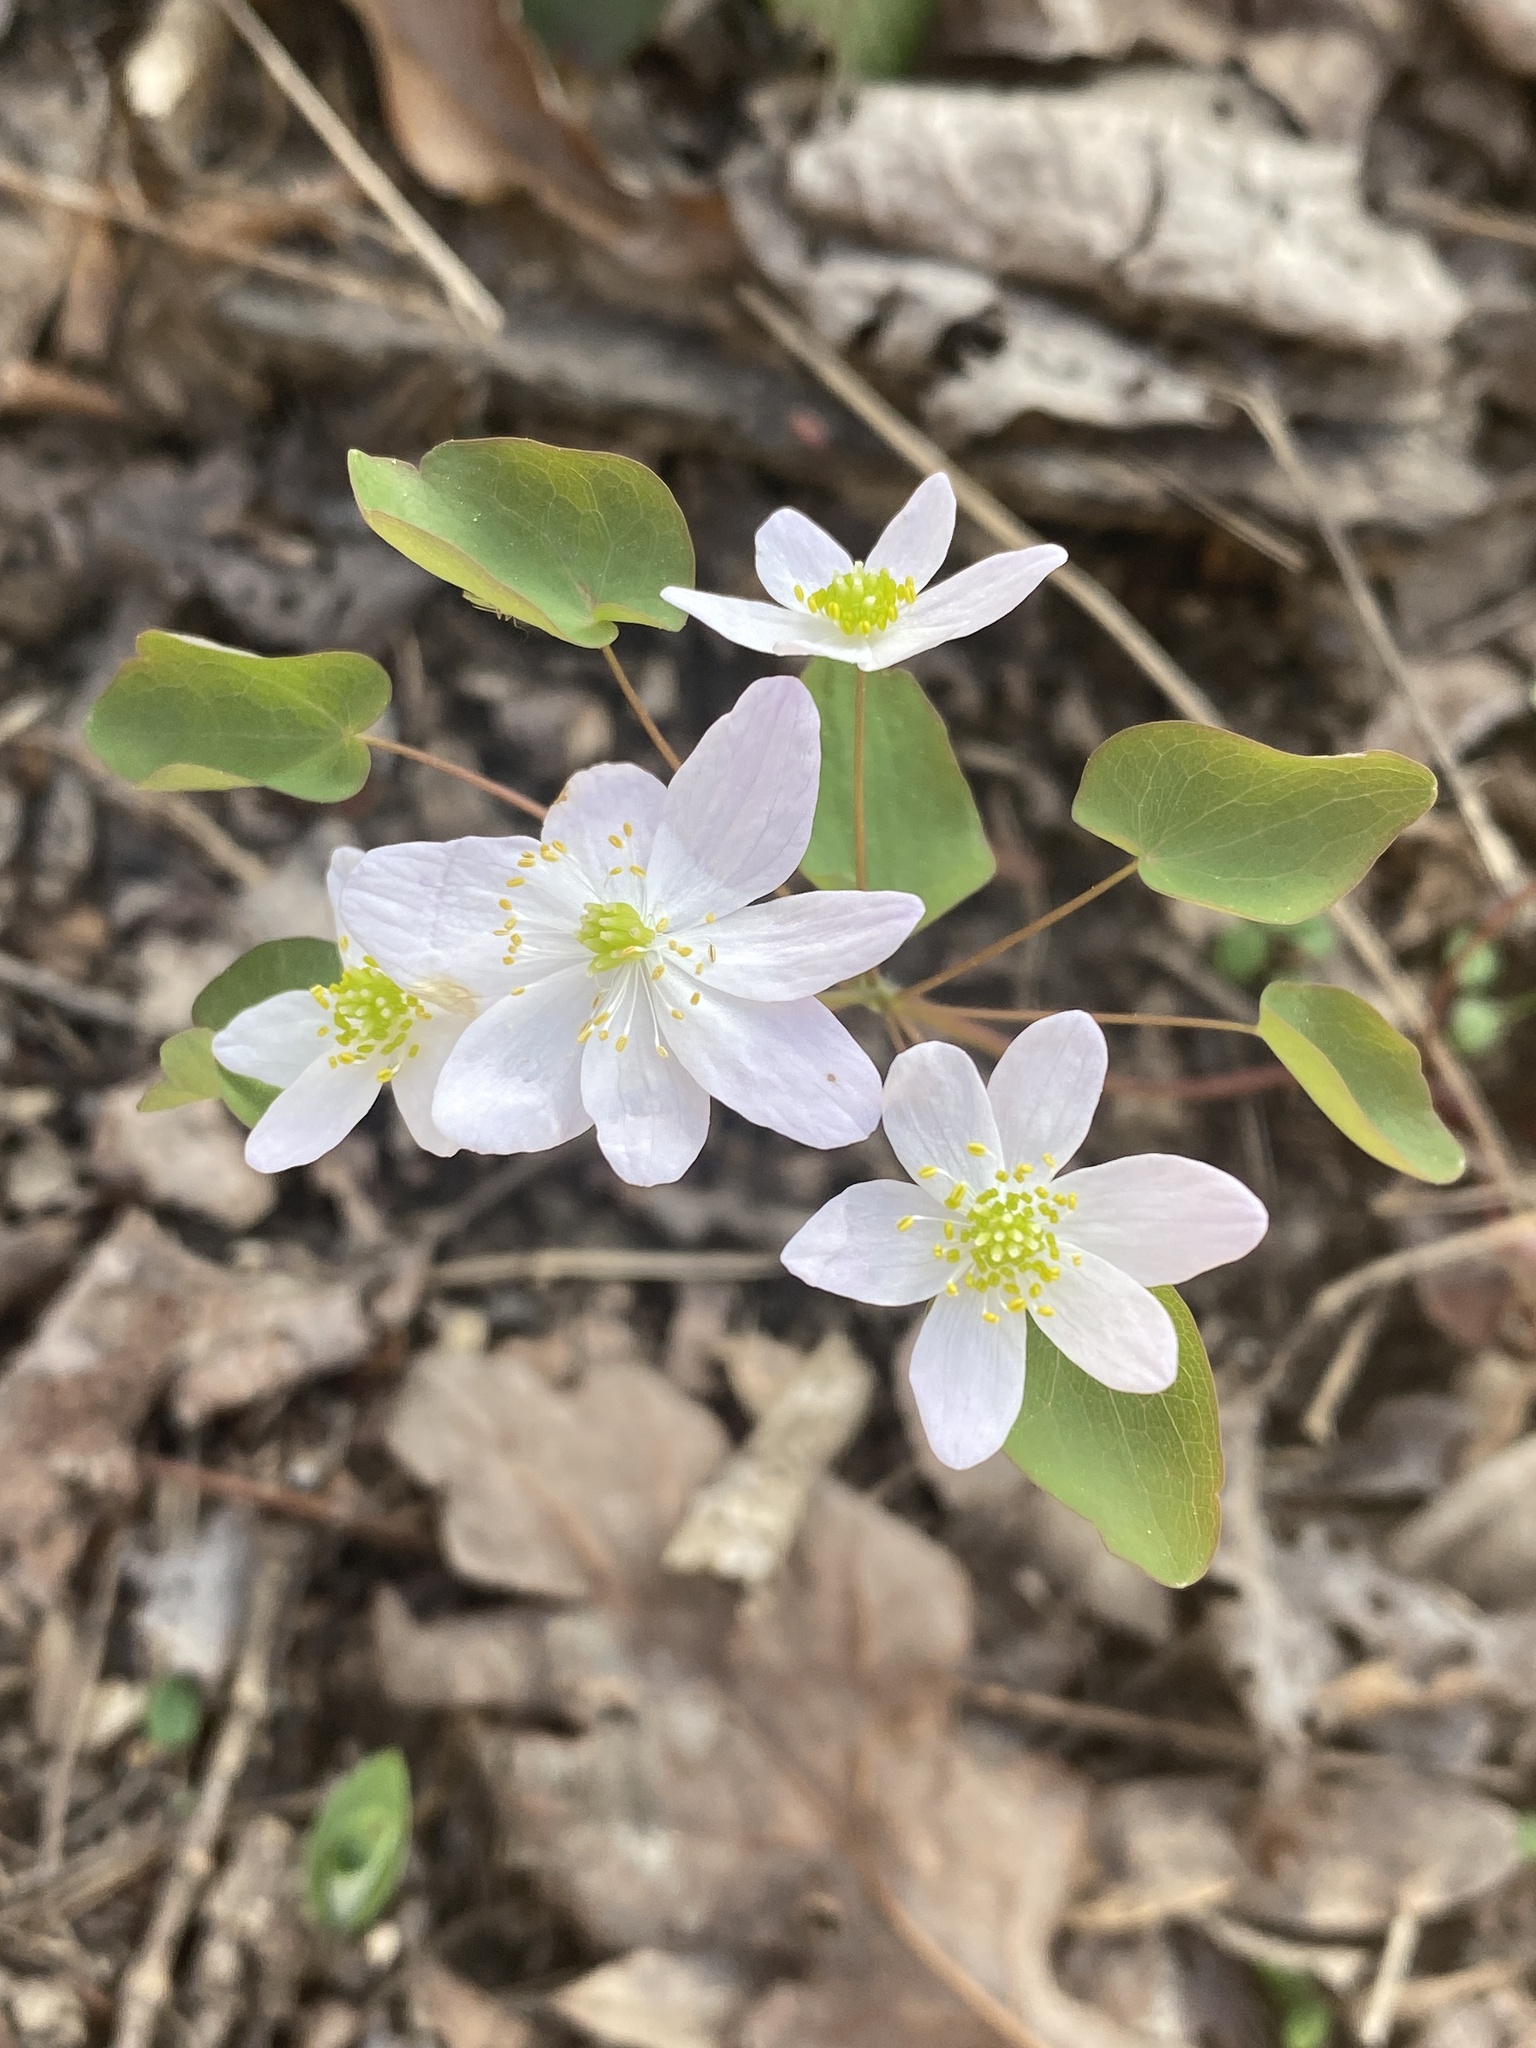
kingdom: Plantae
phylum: Tracheophyta
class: Magnoliopsida
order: Ranunculales
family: Ranunculaceae
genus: Thalictrum
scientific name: Thalictrum thalictroides
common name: Rue-anemone
